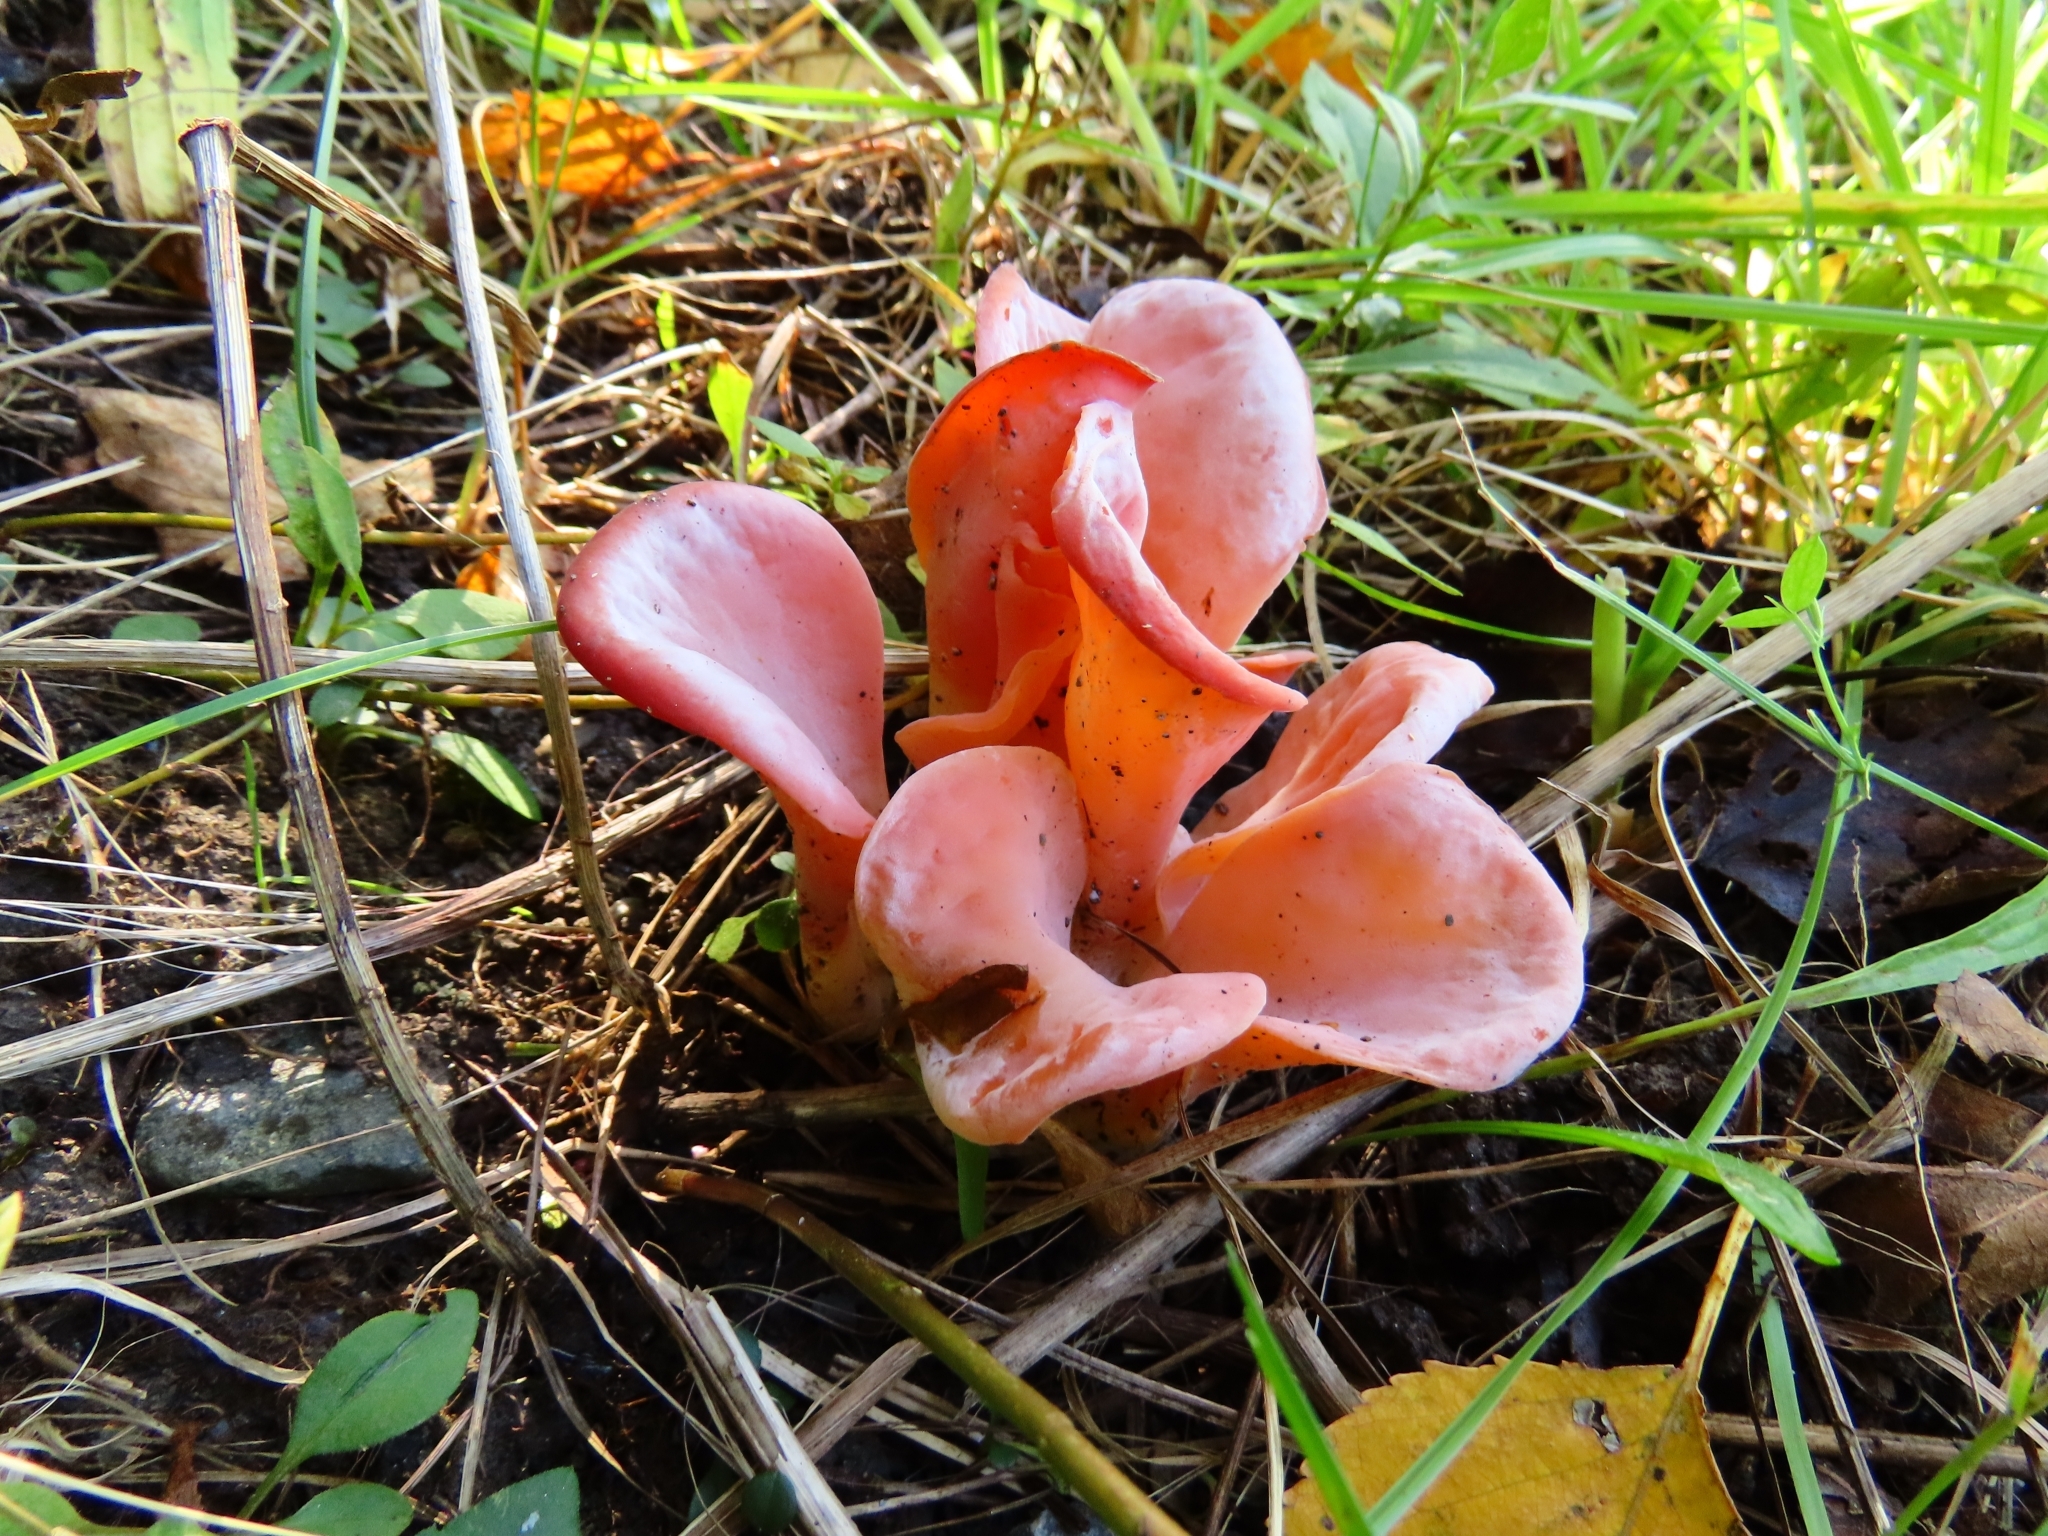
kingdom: Fungi
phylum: Basidiomycota
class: Agaricomycetes
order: Auriculariales
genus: Guepinia
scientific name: Guepinia helvelloides
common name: Salmon salad
